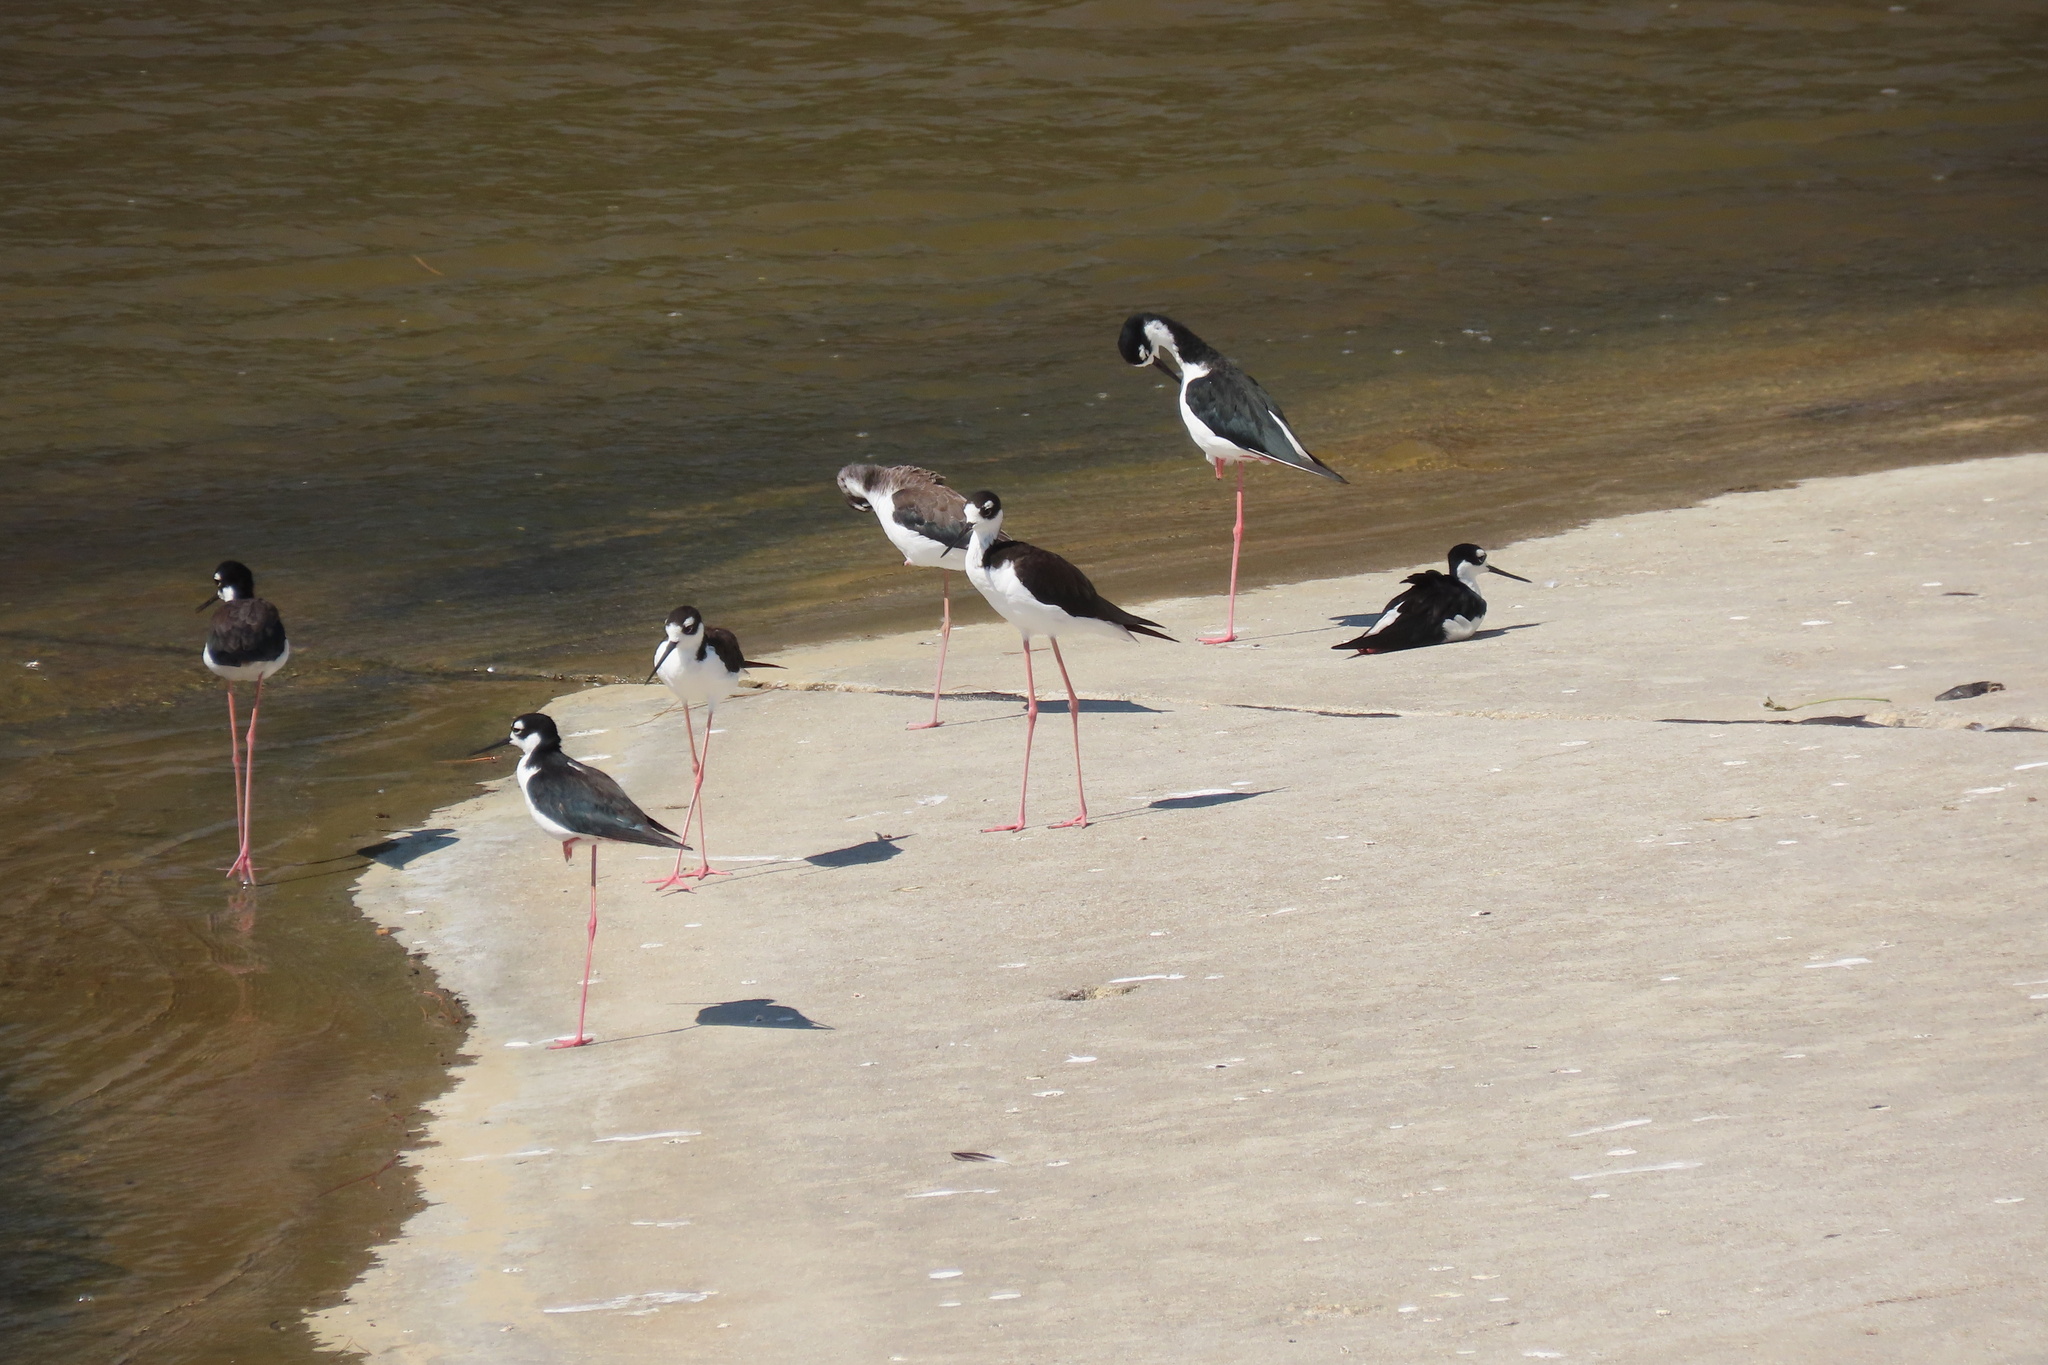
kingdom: Animalia
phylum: Chordata
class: Aves
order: Charadriiformes
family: Recurvirostridae
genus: Himantopus
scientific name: Himantopus mexicanus
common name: Black-necked stilt
